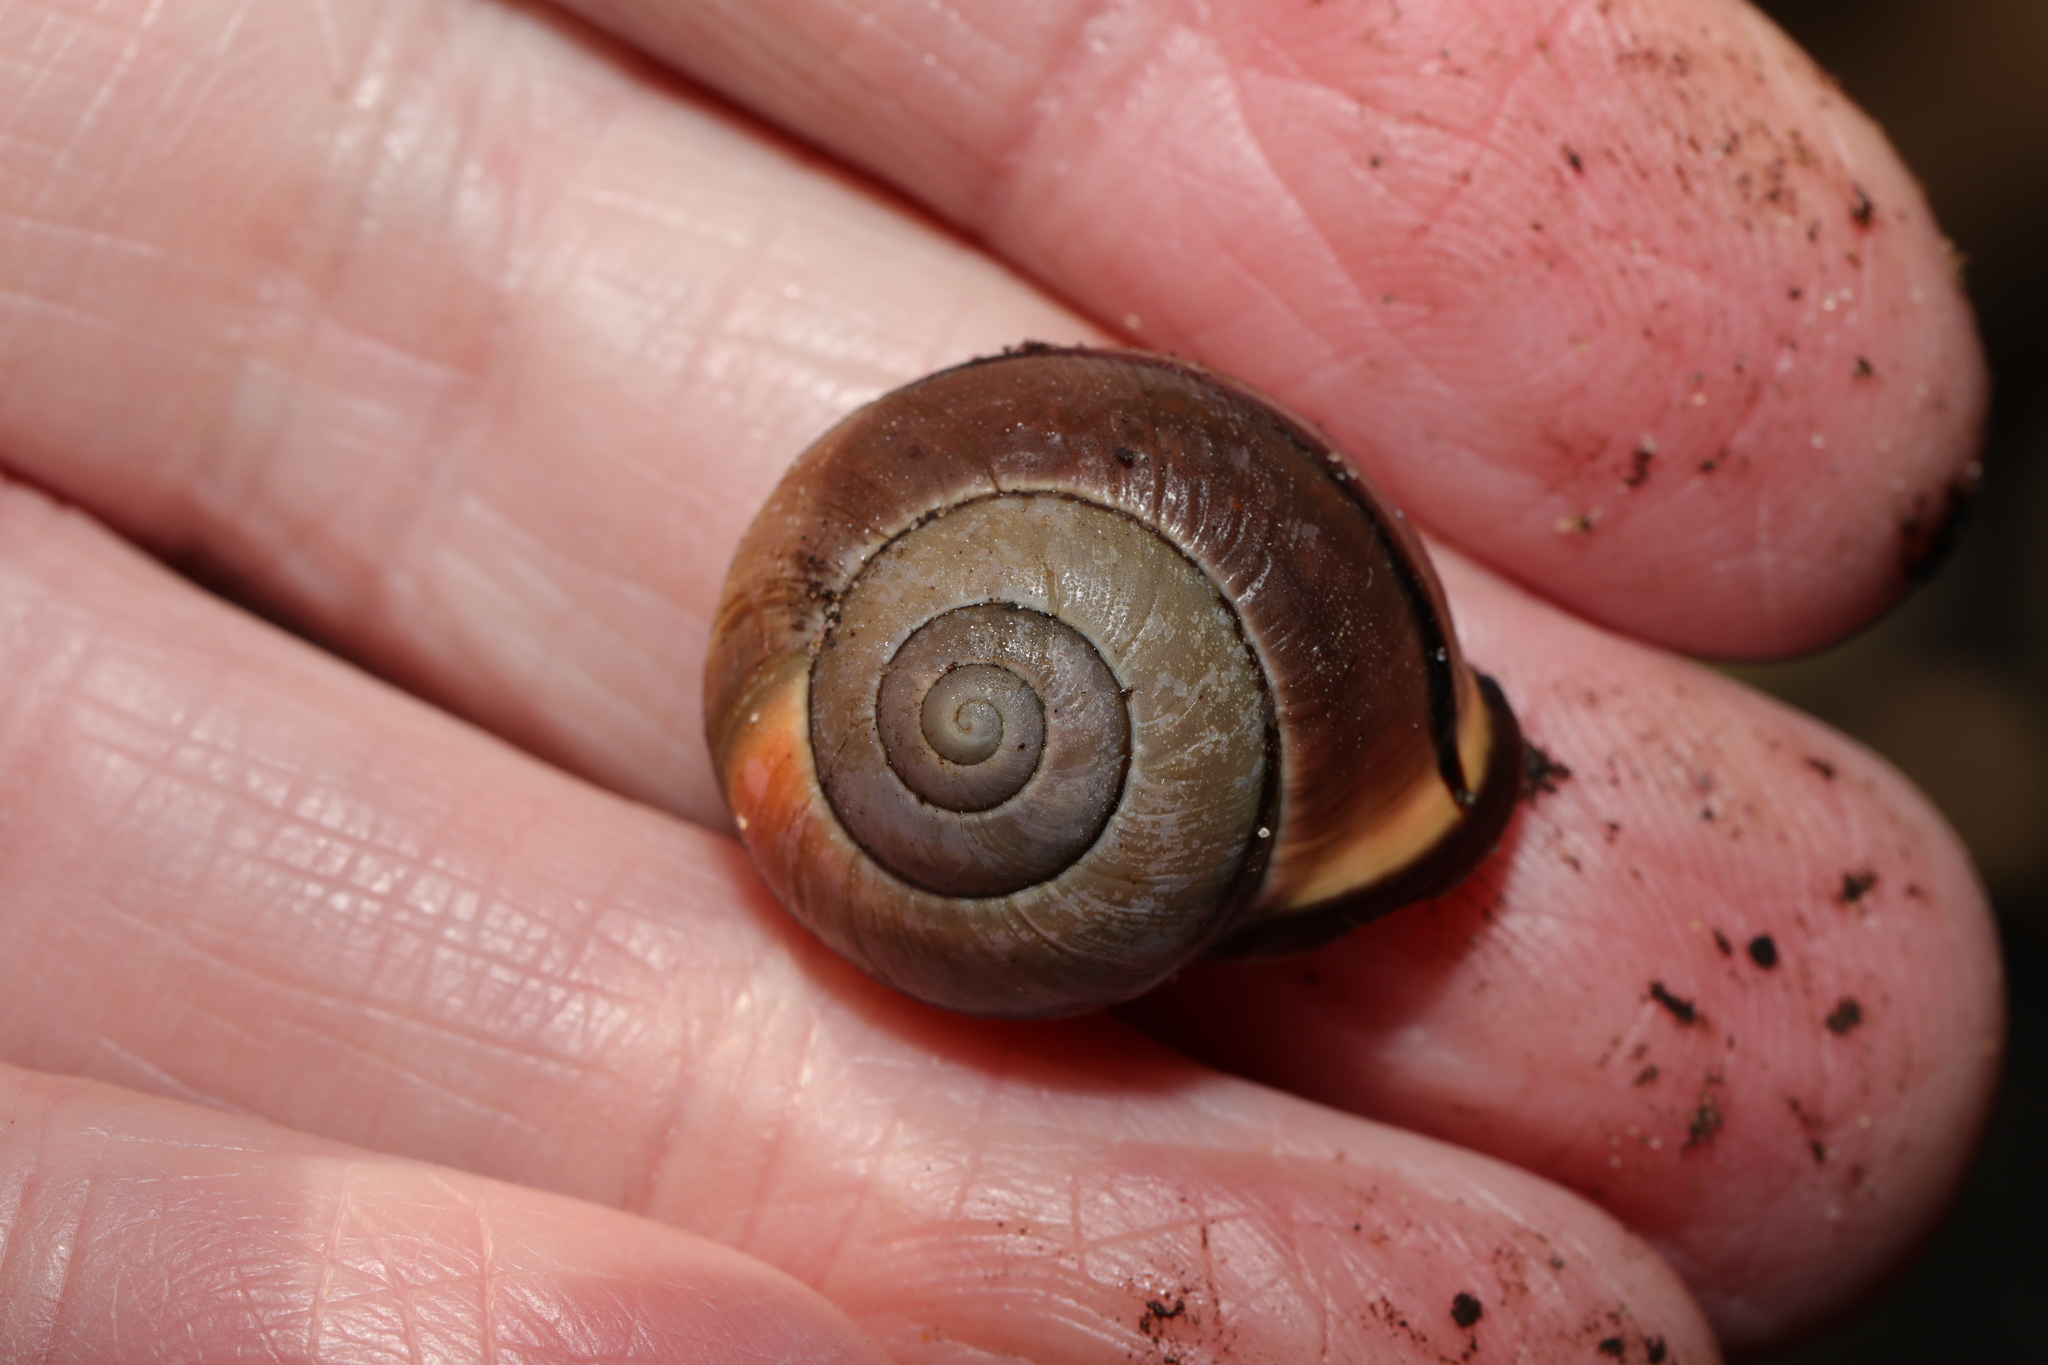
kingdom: Animalia
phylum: Mollusca
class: Gastropoda
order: Stylommatophora
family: Helicidae
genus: Cepaea
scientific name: Cepaea nemoralis
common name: Grovesnail
